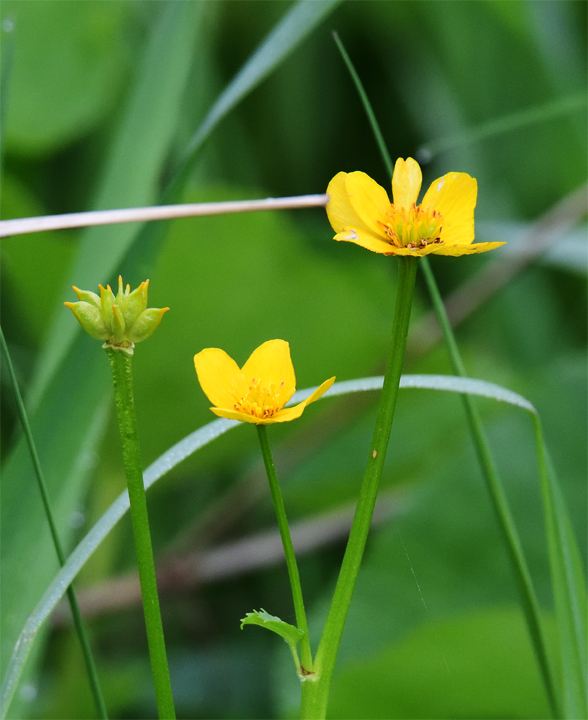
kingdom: Plantae
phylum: Tracheophyta
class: Magnoliopsida
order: Ranunculales
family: Ranunculaceae
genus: Caltha
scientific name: Caltha palustris
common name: Marsh marigold
